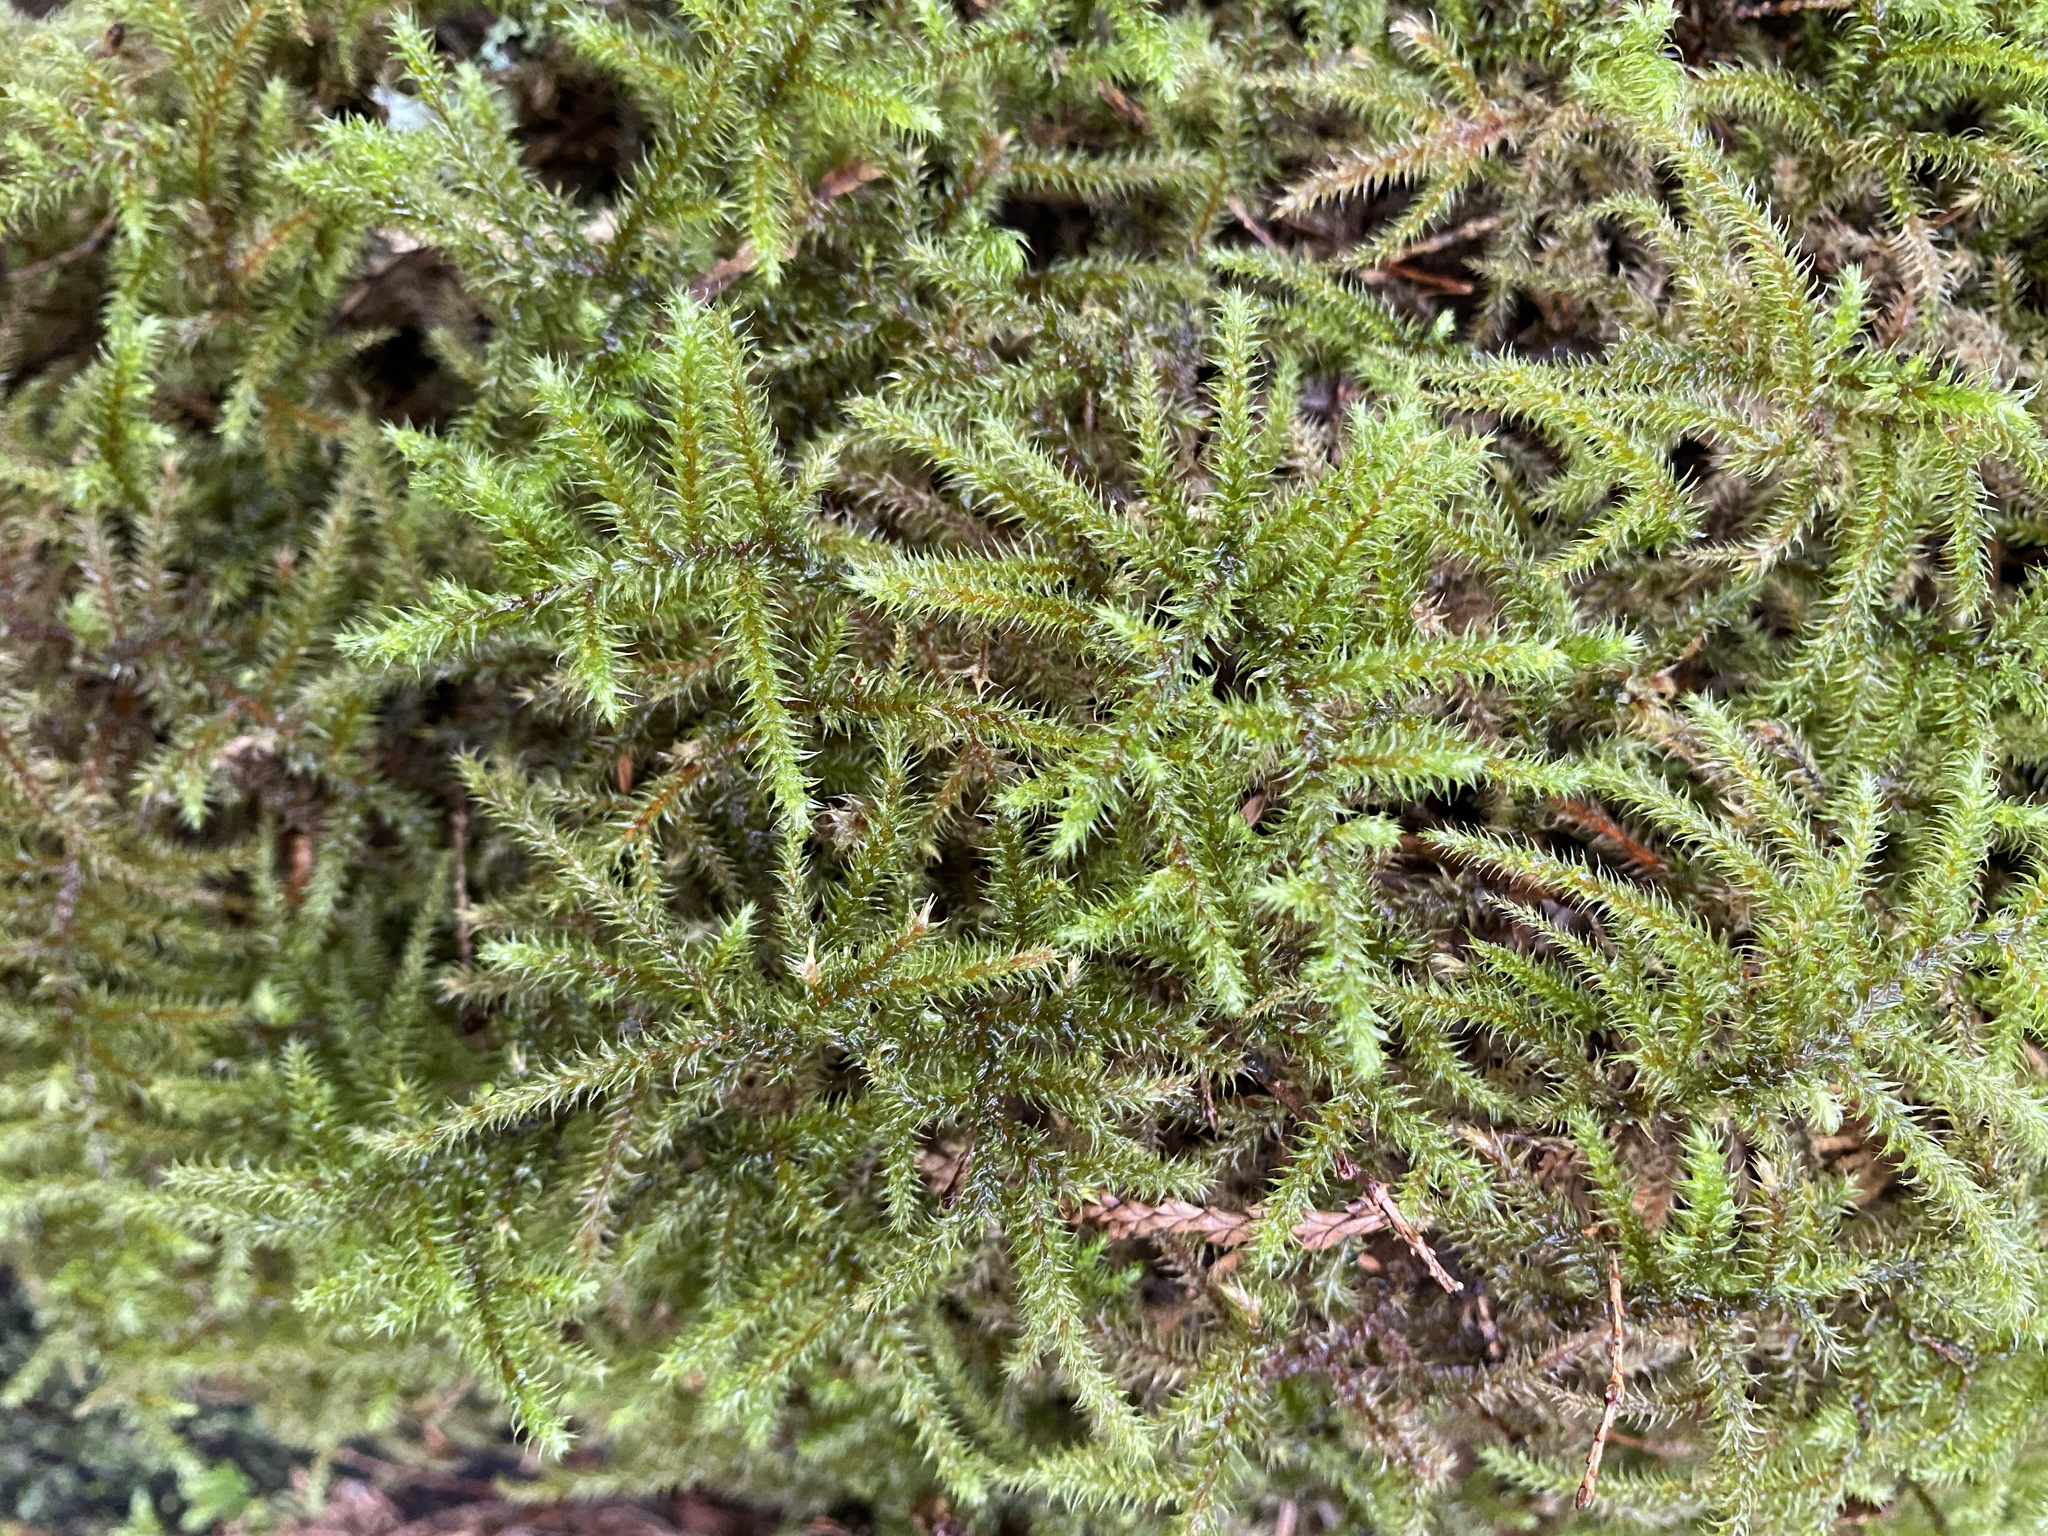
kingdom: Plantae
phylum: Bryophyta
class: Bryopsida
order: Hypnales
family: Hylocomiaceae
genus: Rhytidiadelphus
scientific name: Rhytidiadelphus loreus
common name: Lanky moss
